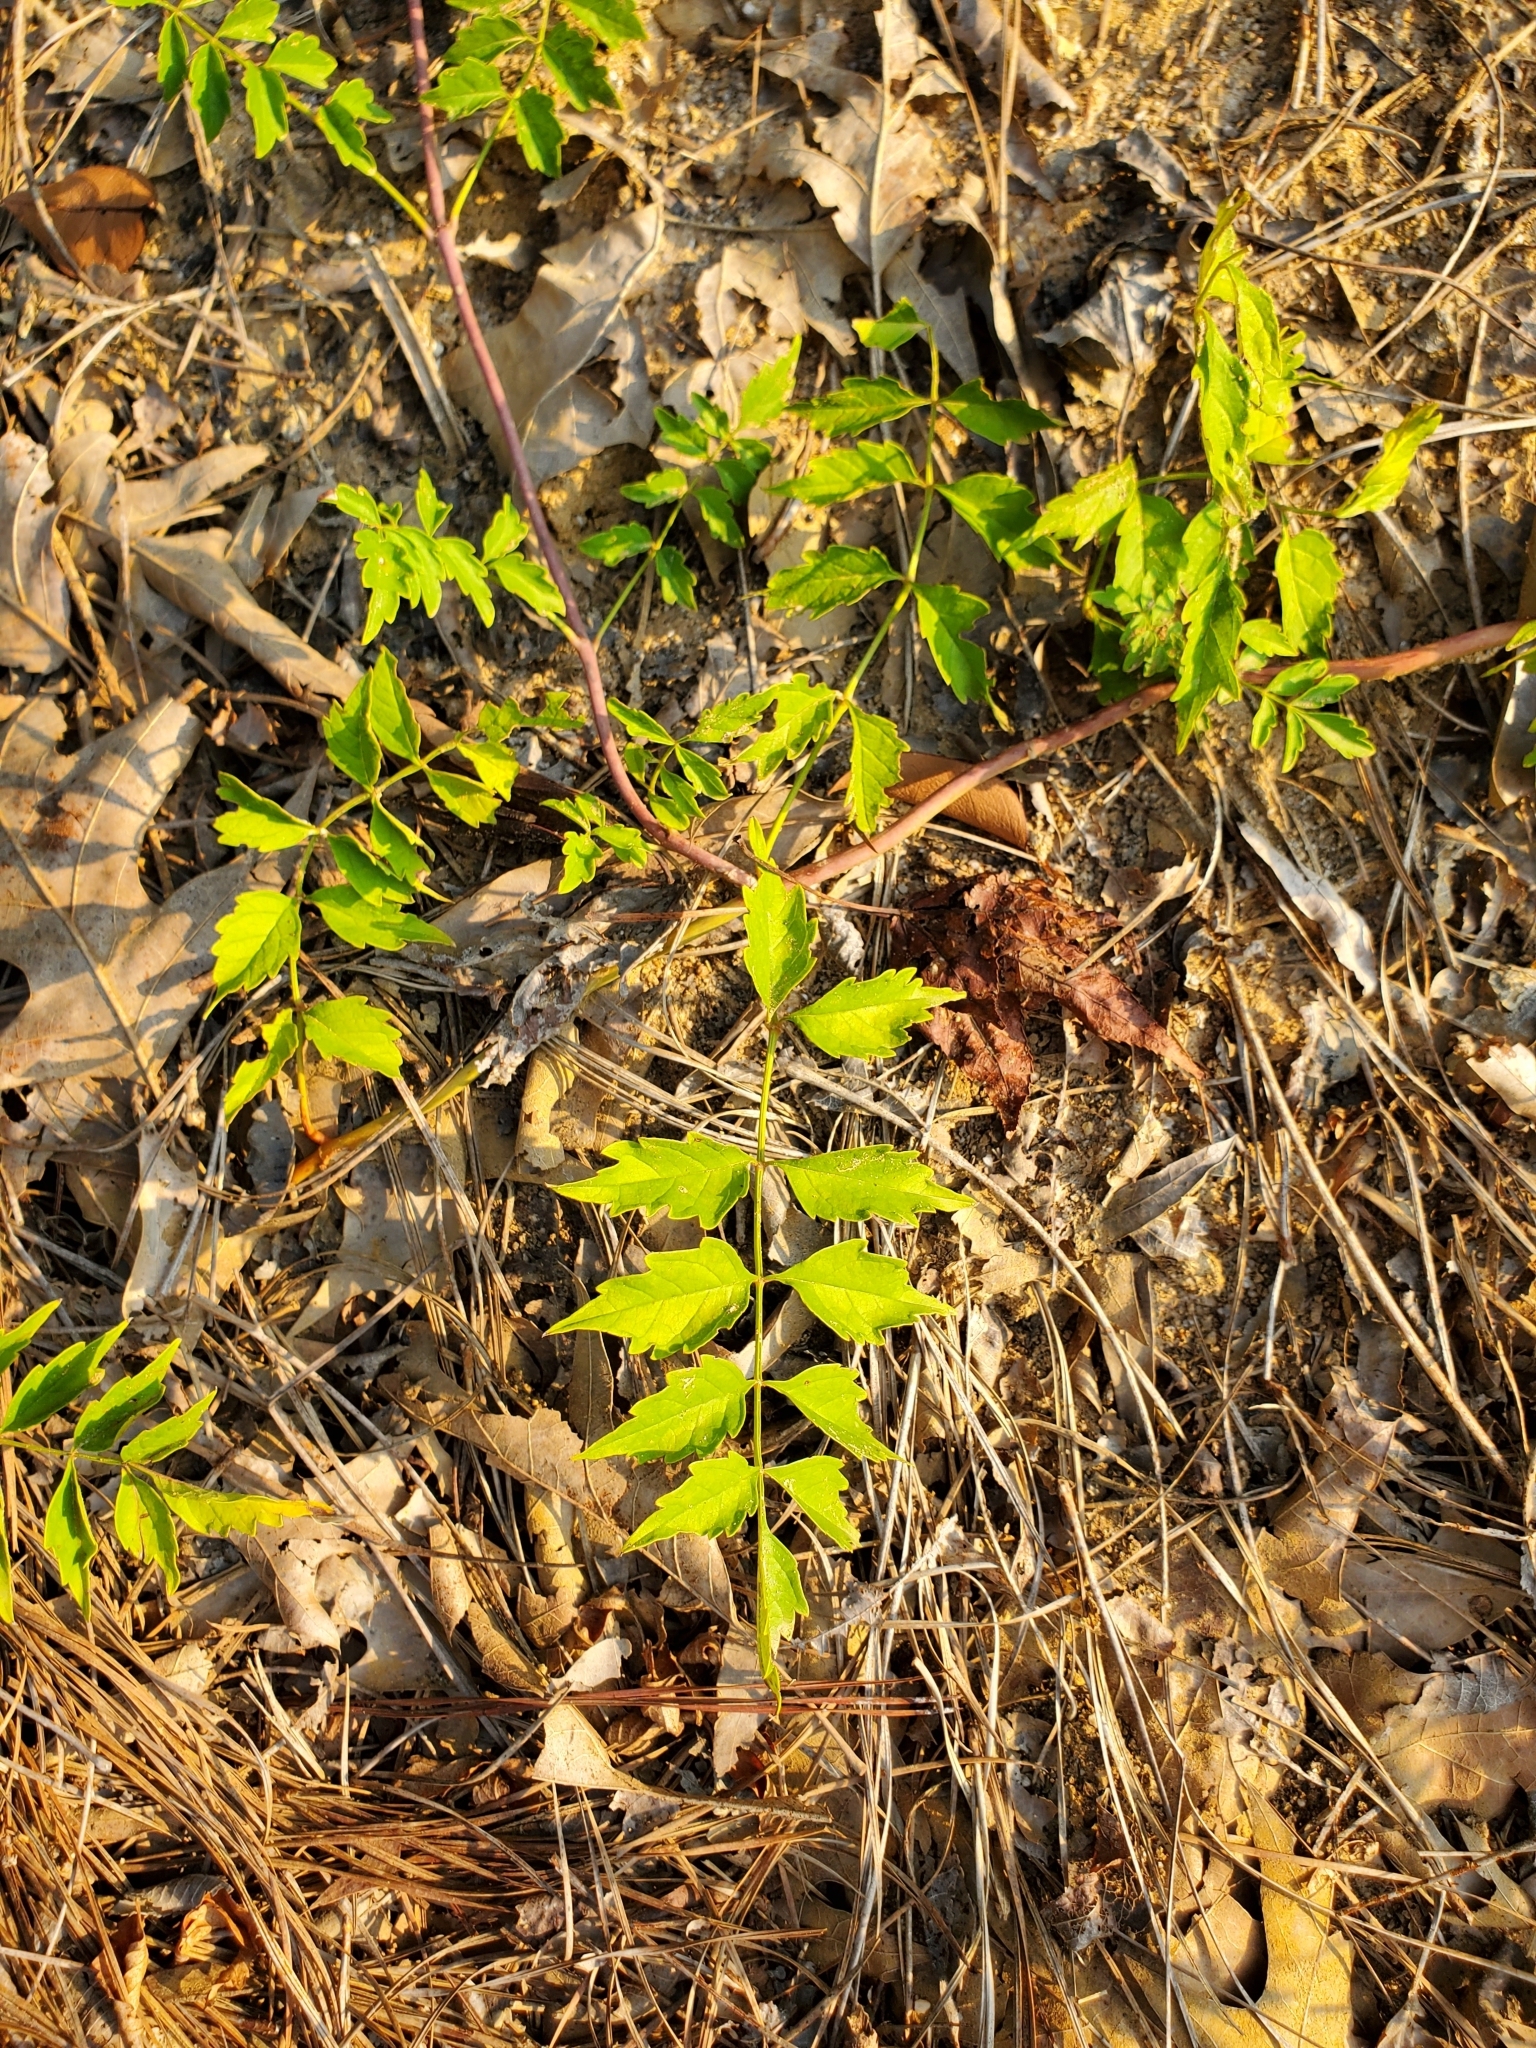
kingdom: Plantae
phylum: Tracheophyta
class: Magnoliopsida
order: Lamiales
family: Bignoniaceae
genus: Campsis
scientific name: Campsis radicans
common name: Trumpet-creeper
